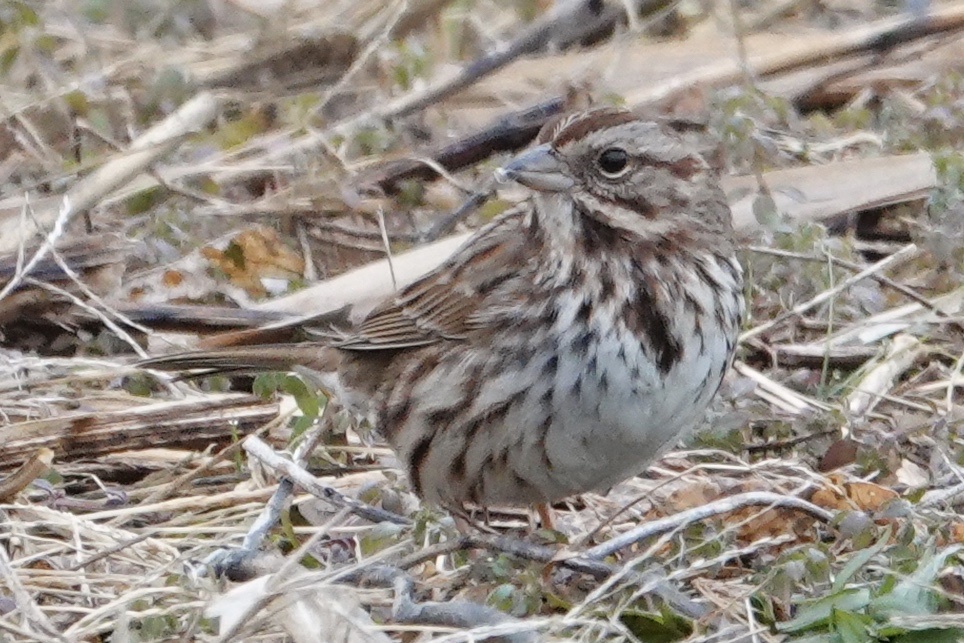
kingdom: Animalia
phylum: Chordata
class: Aves
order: Passeriformes
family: Passerellidae
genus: Melospiza
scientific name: Melospiza melodia
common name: Song sparrow
